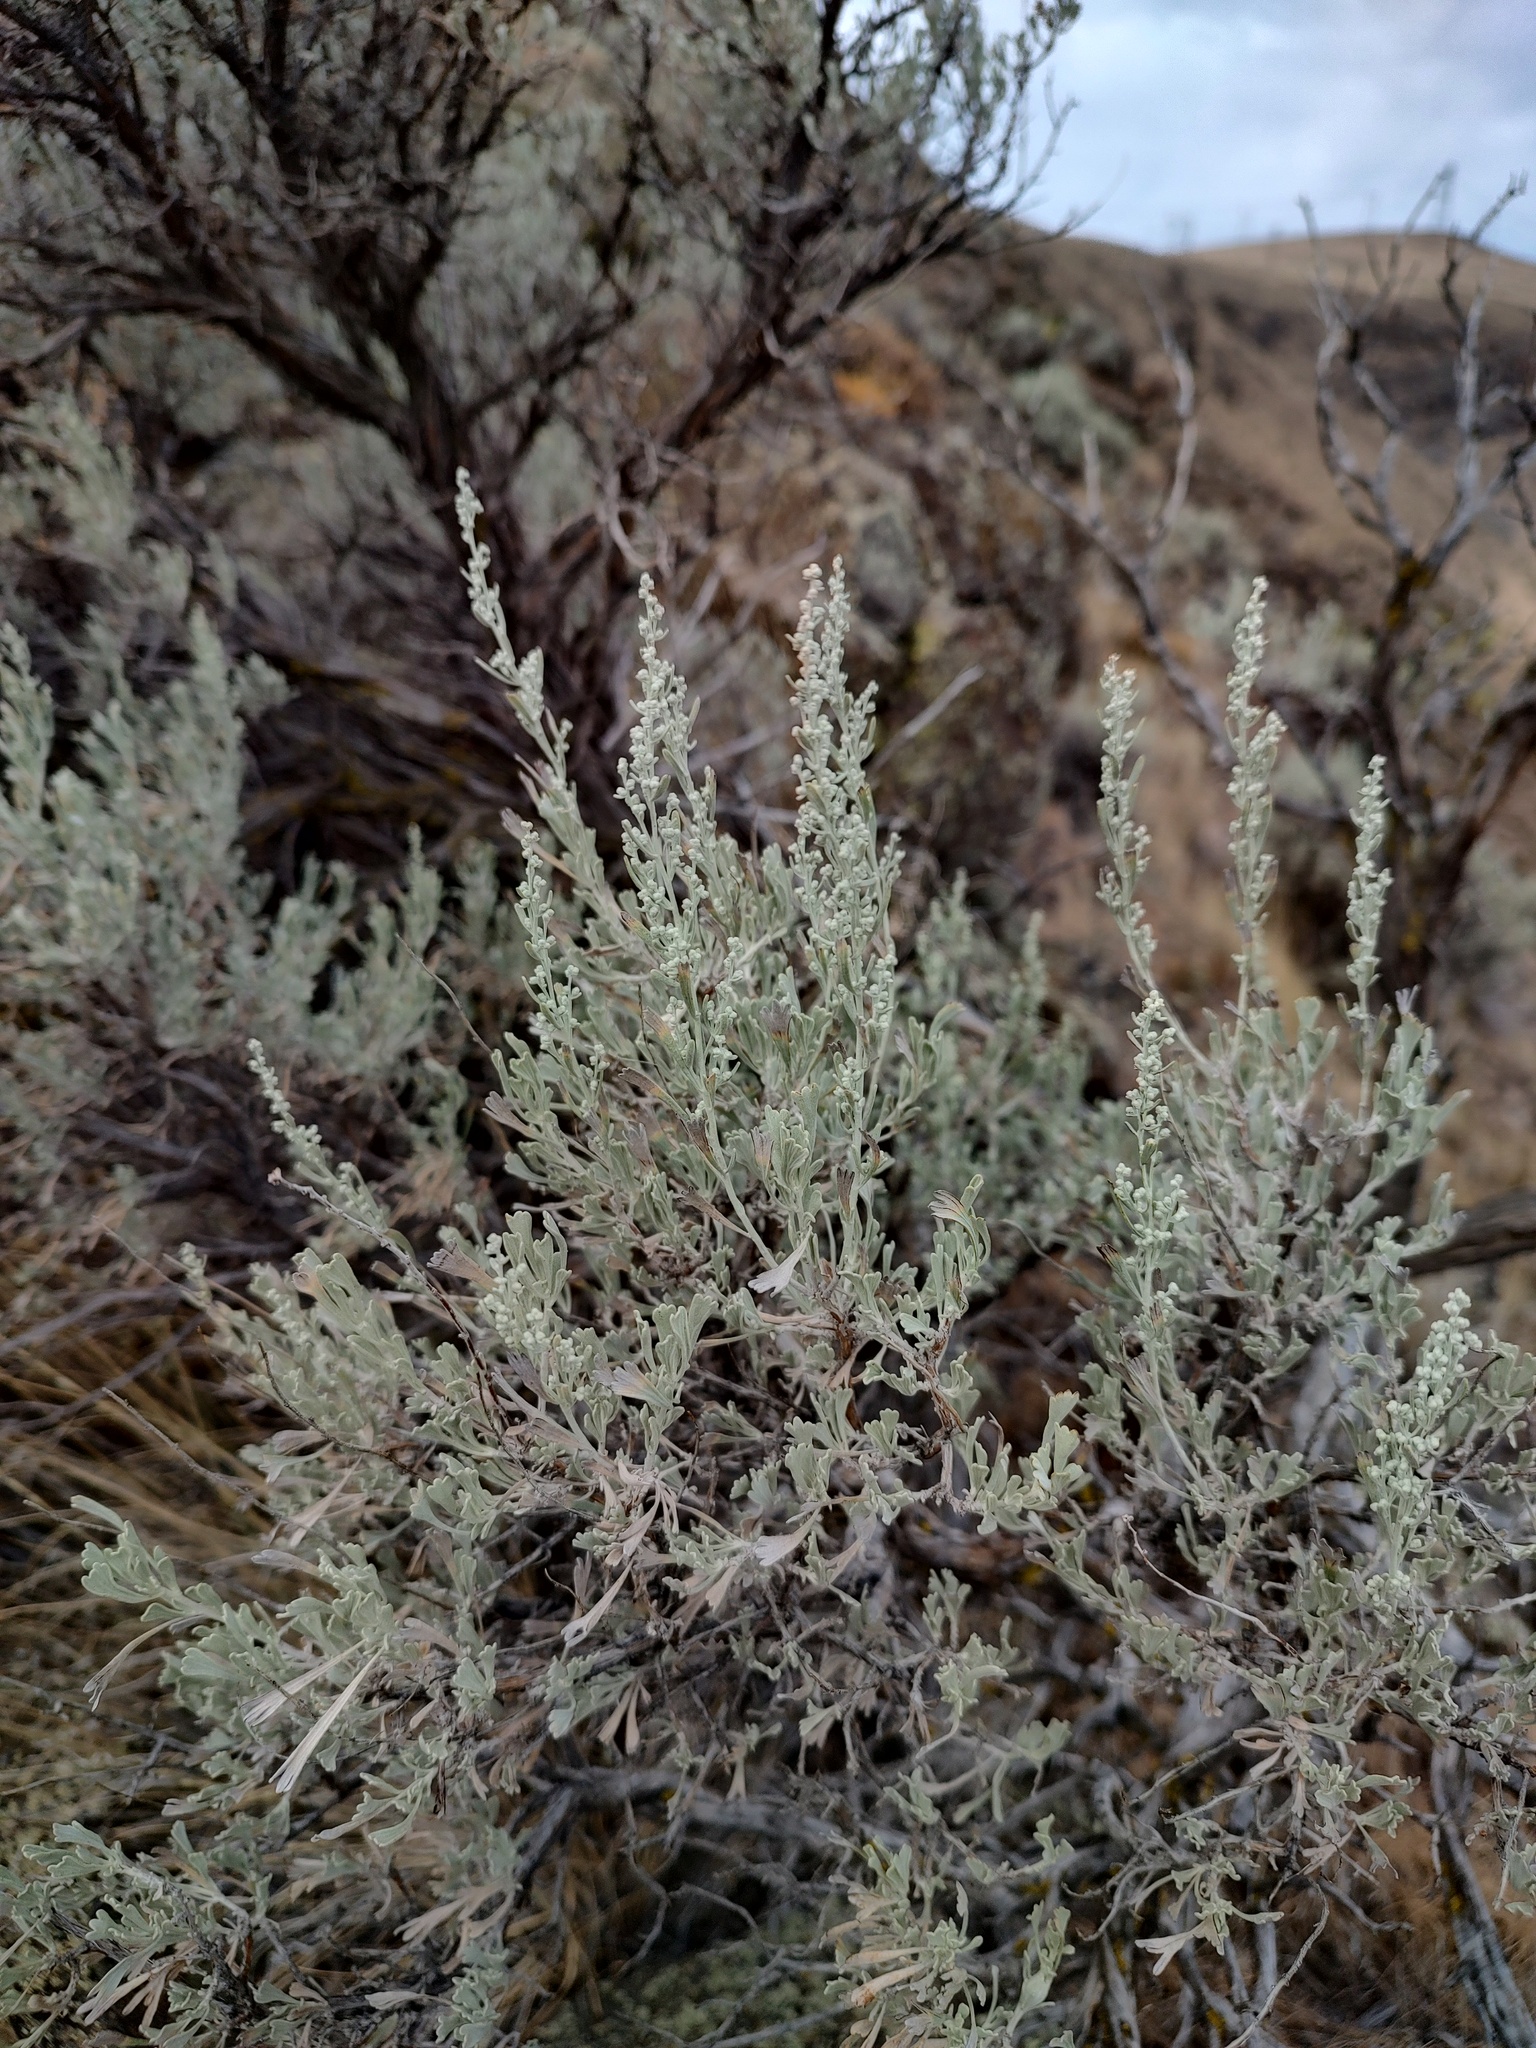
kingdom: Plantae
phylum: Tracheophyta
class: Magnoliopsida
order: Asterales
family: Asteraceae
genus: Artemisia
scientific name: Artemisia tridentata
